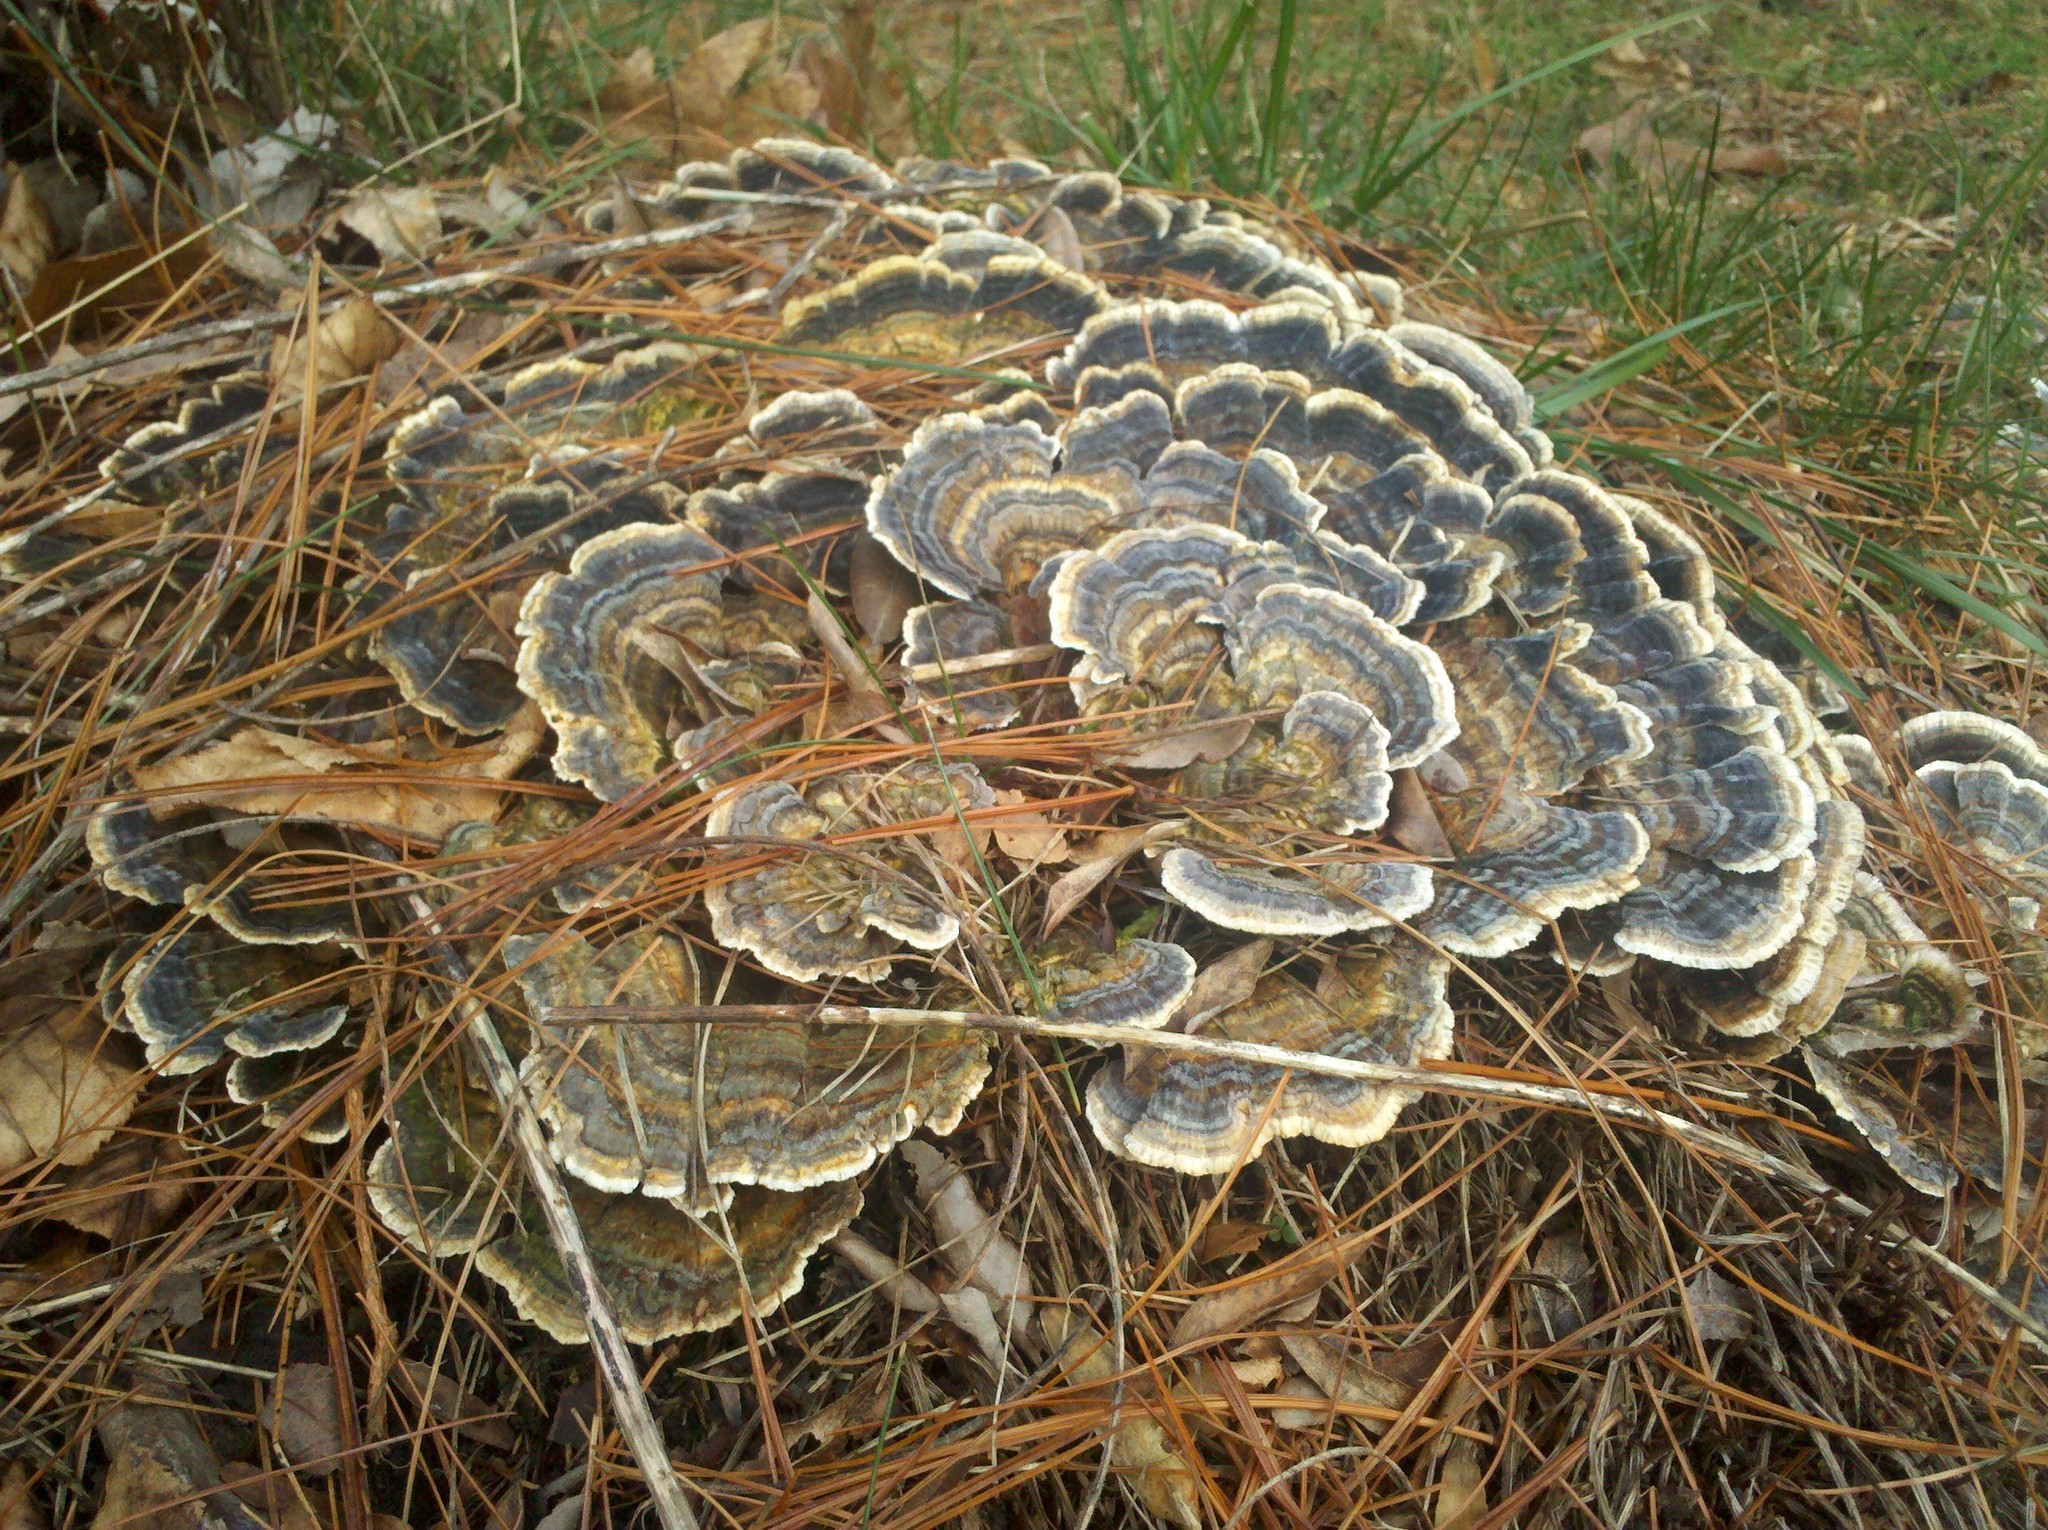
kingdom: Fungi
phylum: Basidiomycota
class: Agaricomycetes
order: Polyporales
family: Polyporaceae
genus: Trametes
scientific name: Trametes versicolor
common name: Turkeytail
